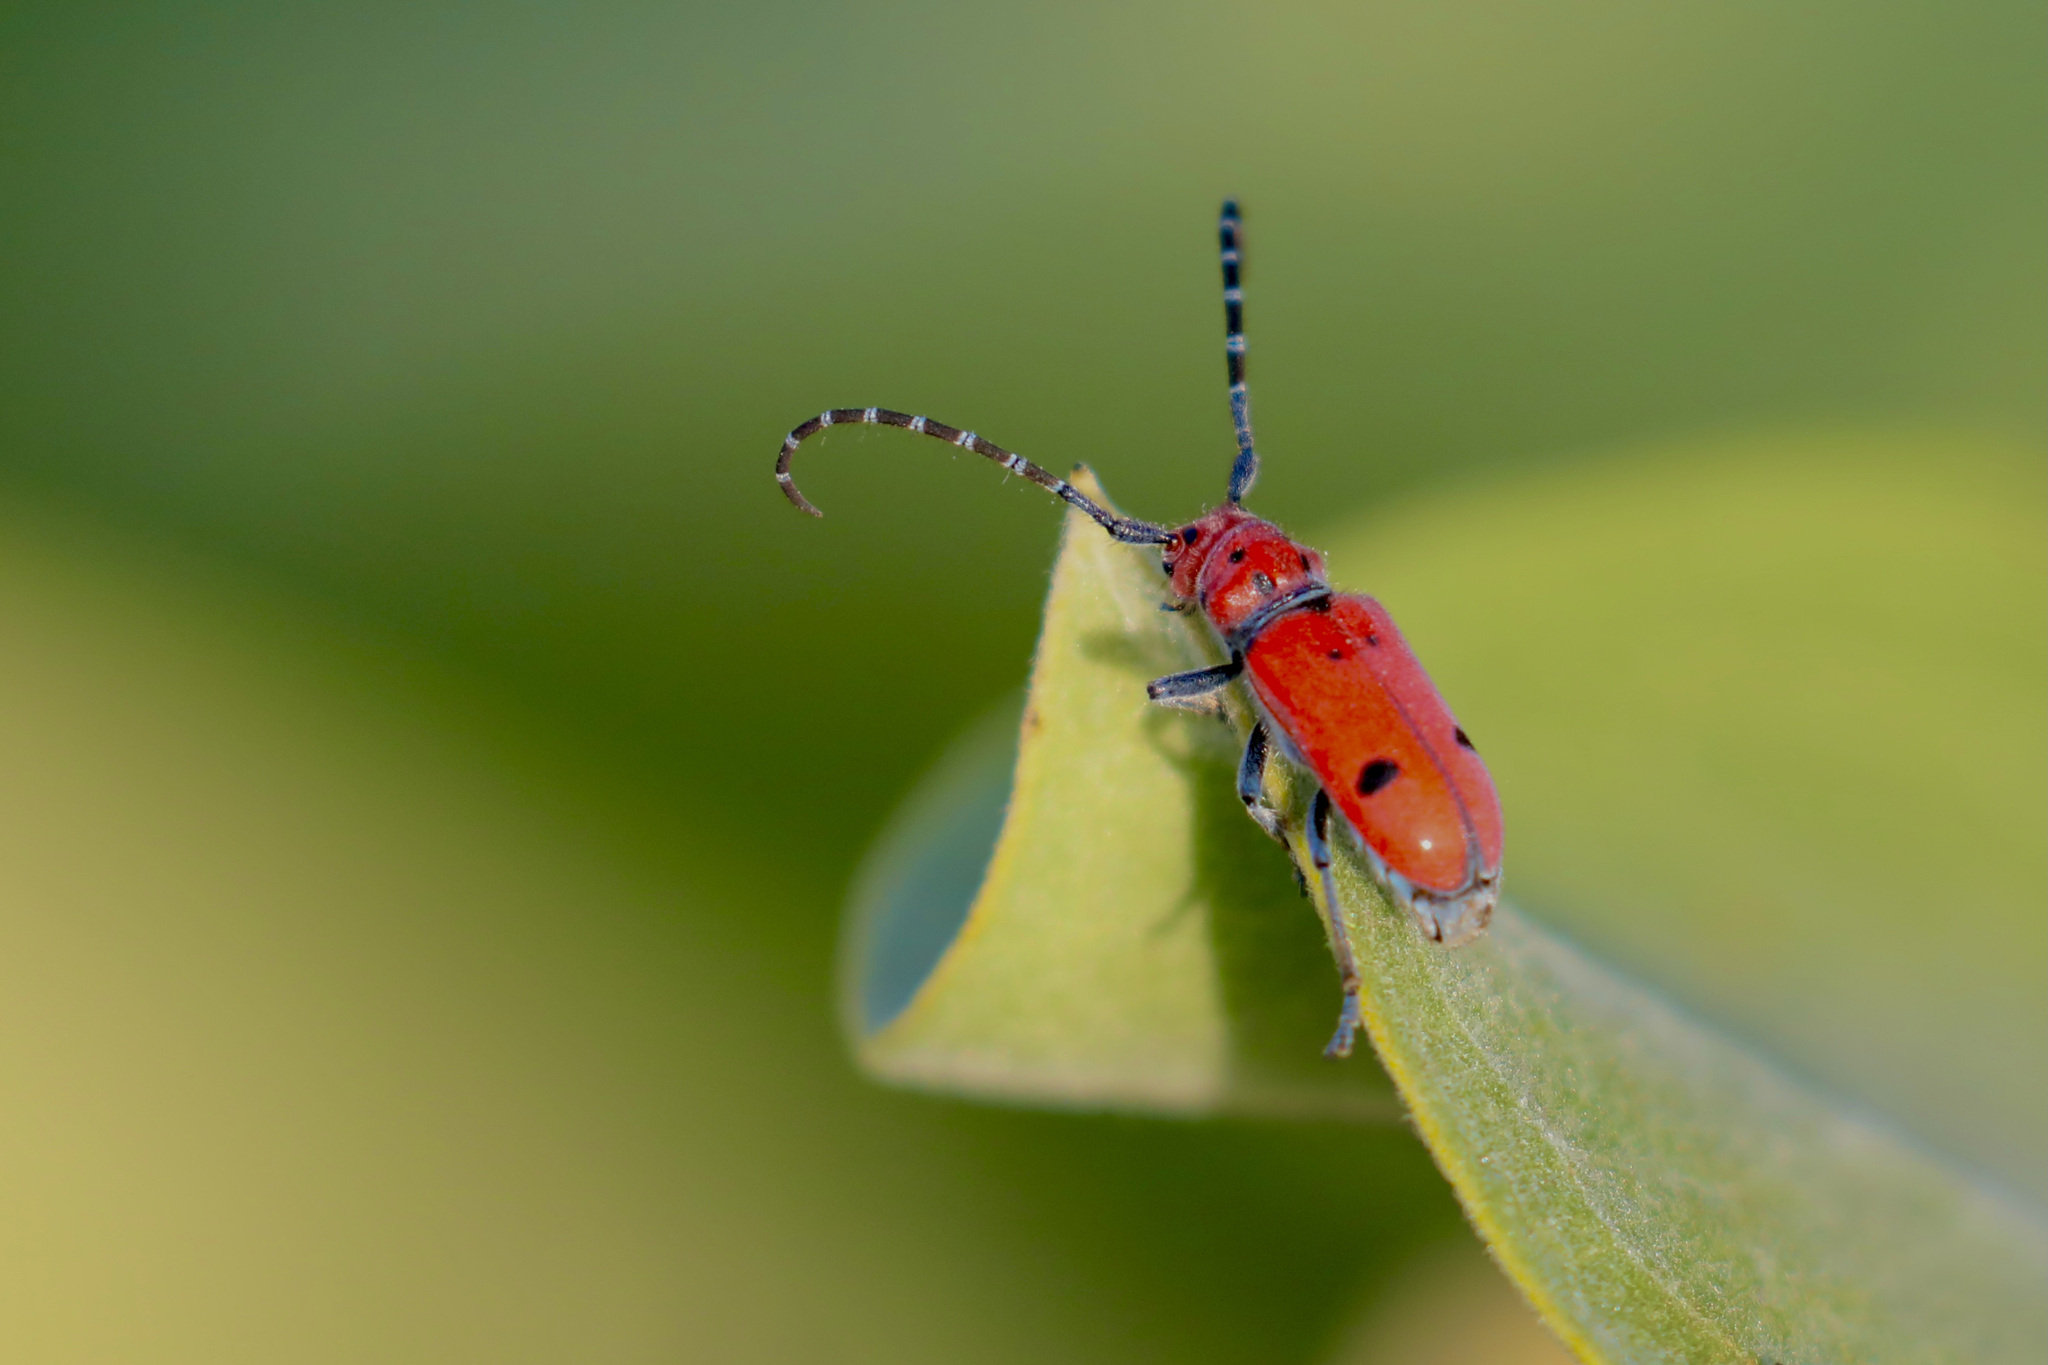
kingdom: Animalia
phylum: Arthropoda
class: Insecta
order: Coleoptera
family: Cerambycidae
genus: Tetraopes
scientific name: Tetraopes femoratus
